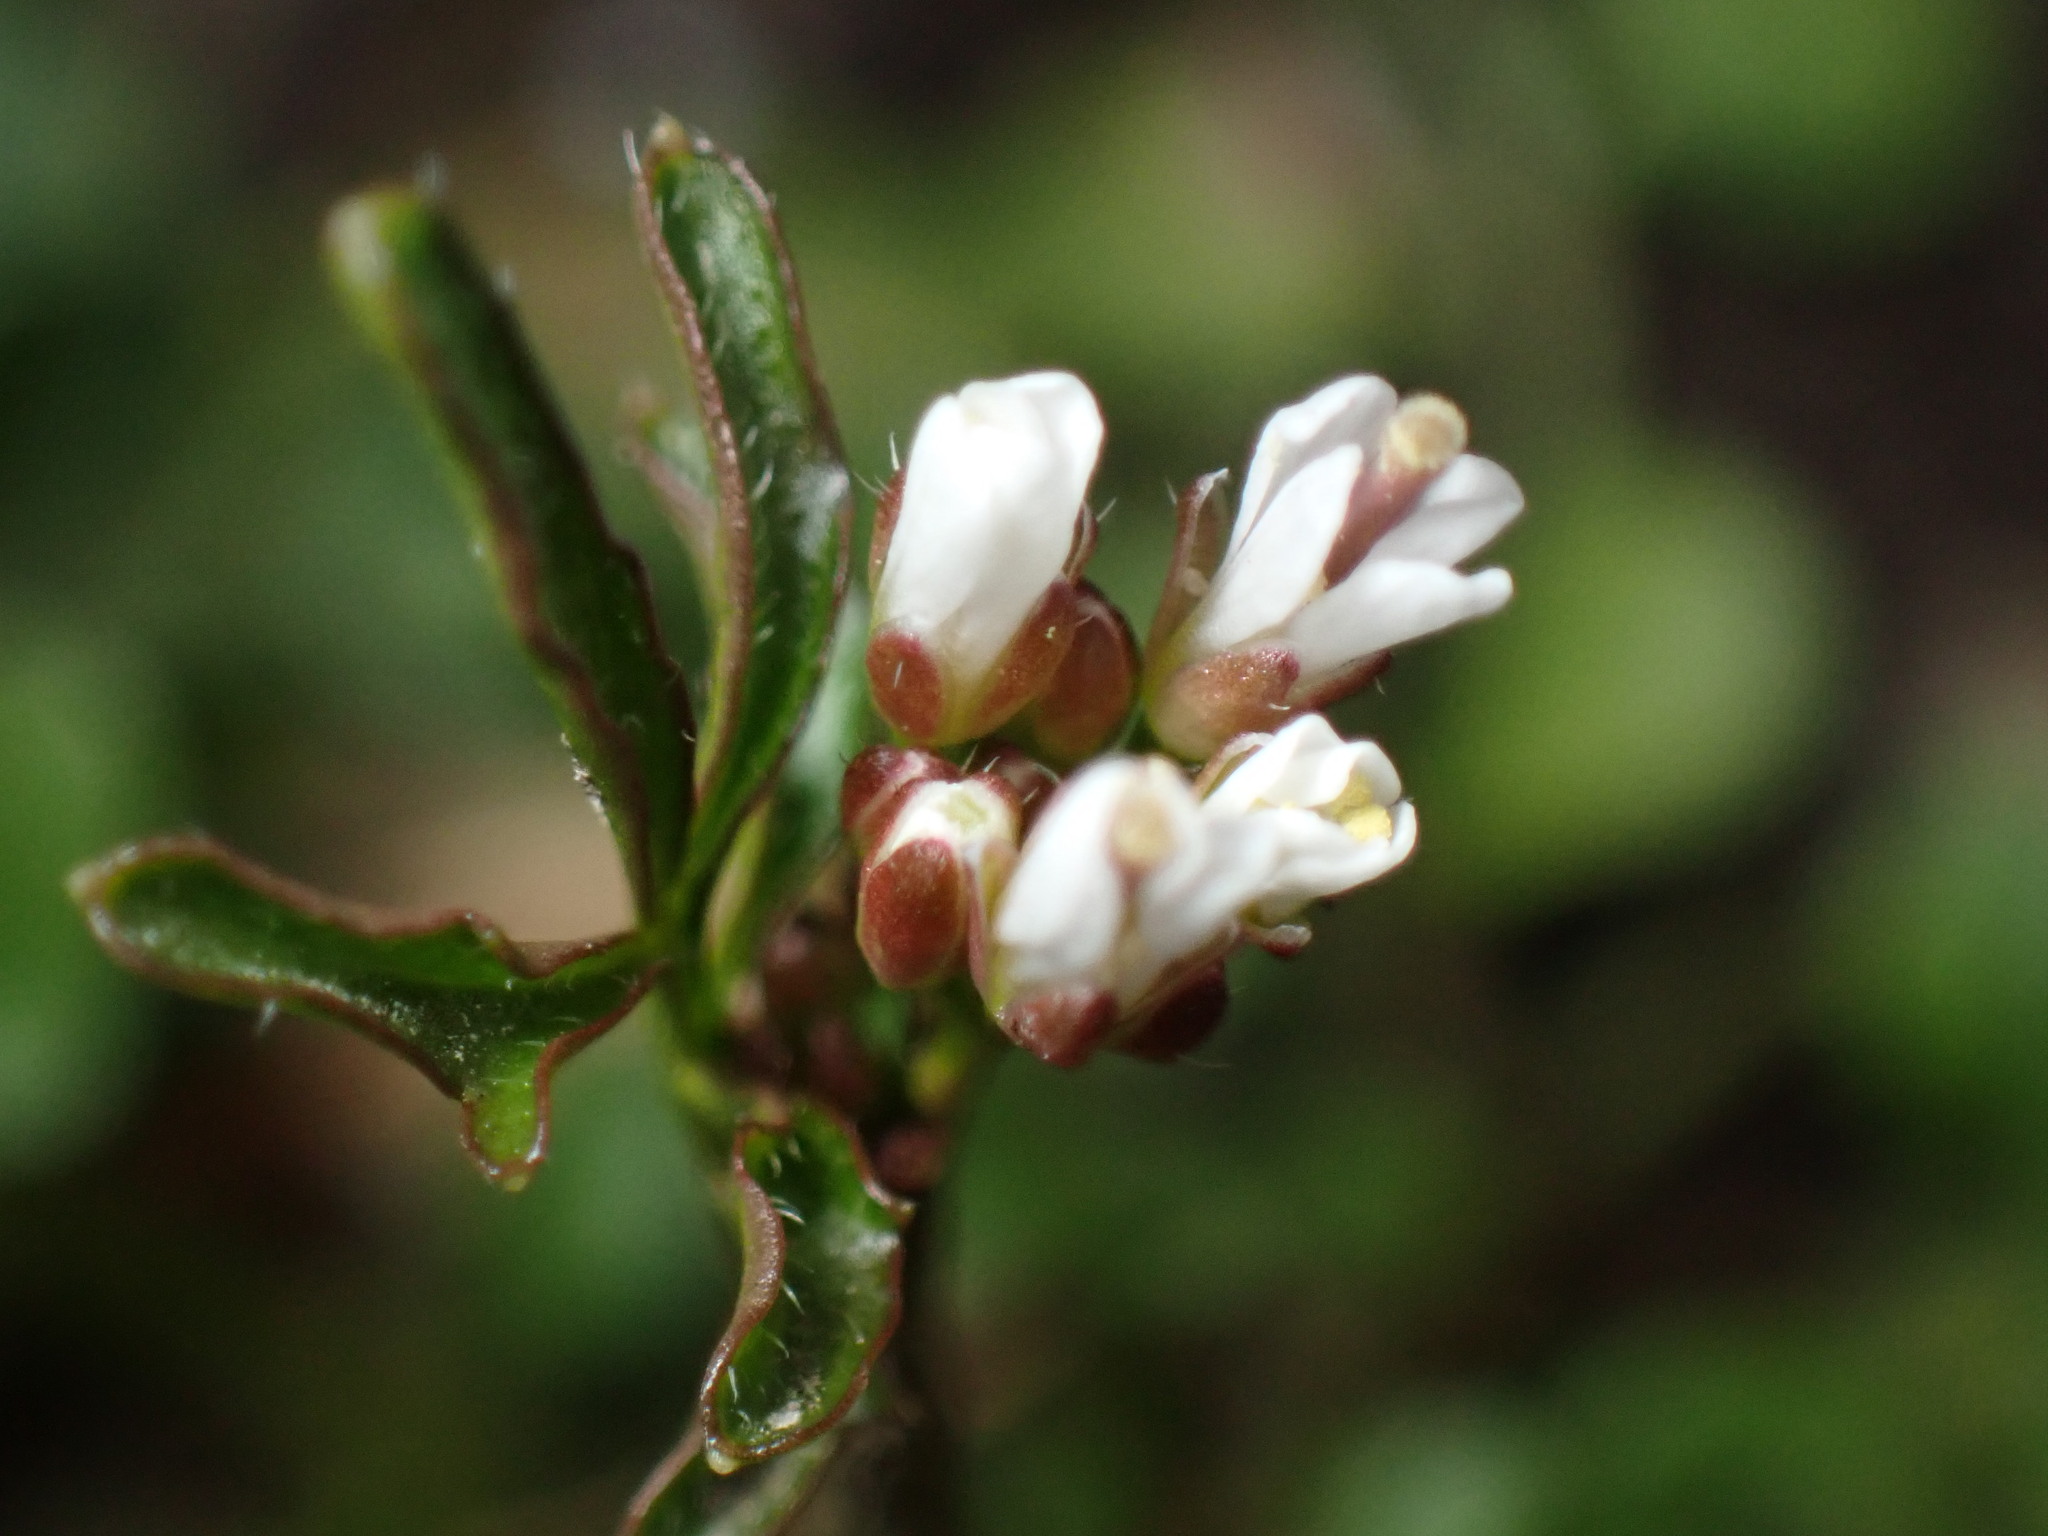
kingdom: Plantae
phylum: Tracheophyta
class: Magnoliopsida
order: Brassicales
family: Brassicaceae
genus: Cardamine
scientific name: Cardamine hirsuta
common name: Hairy bittercress
